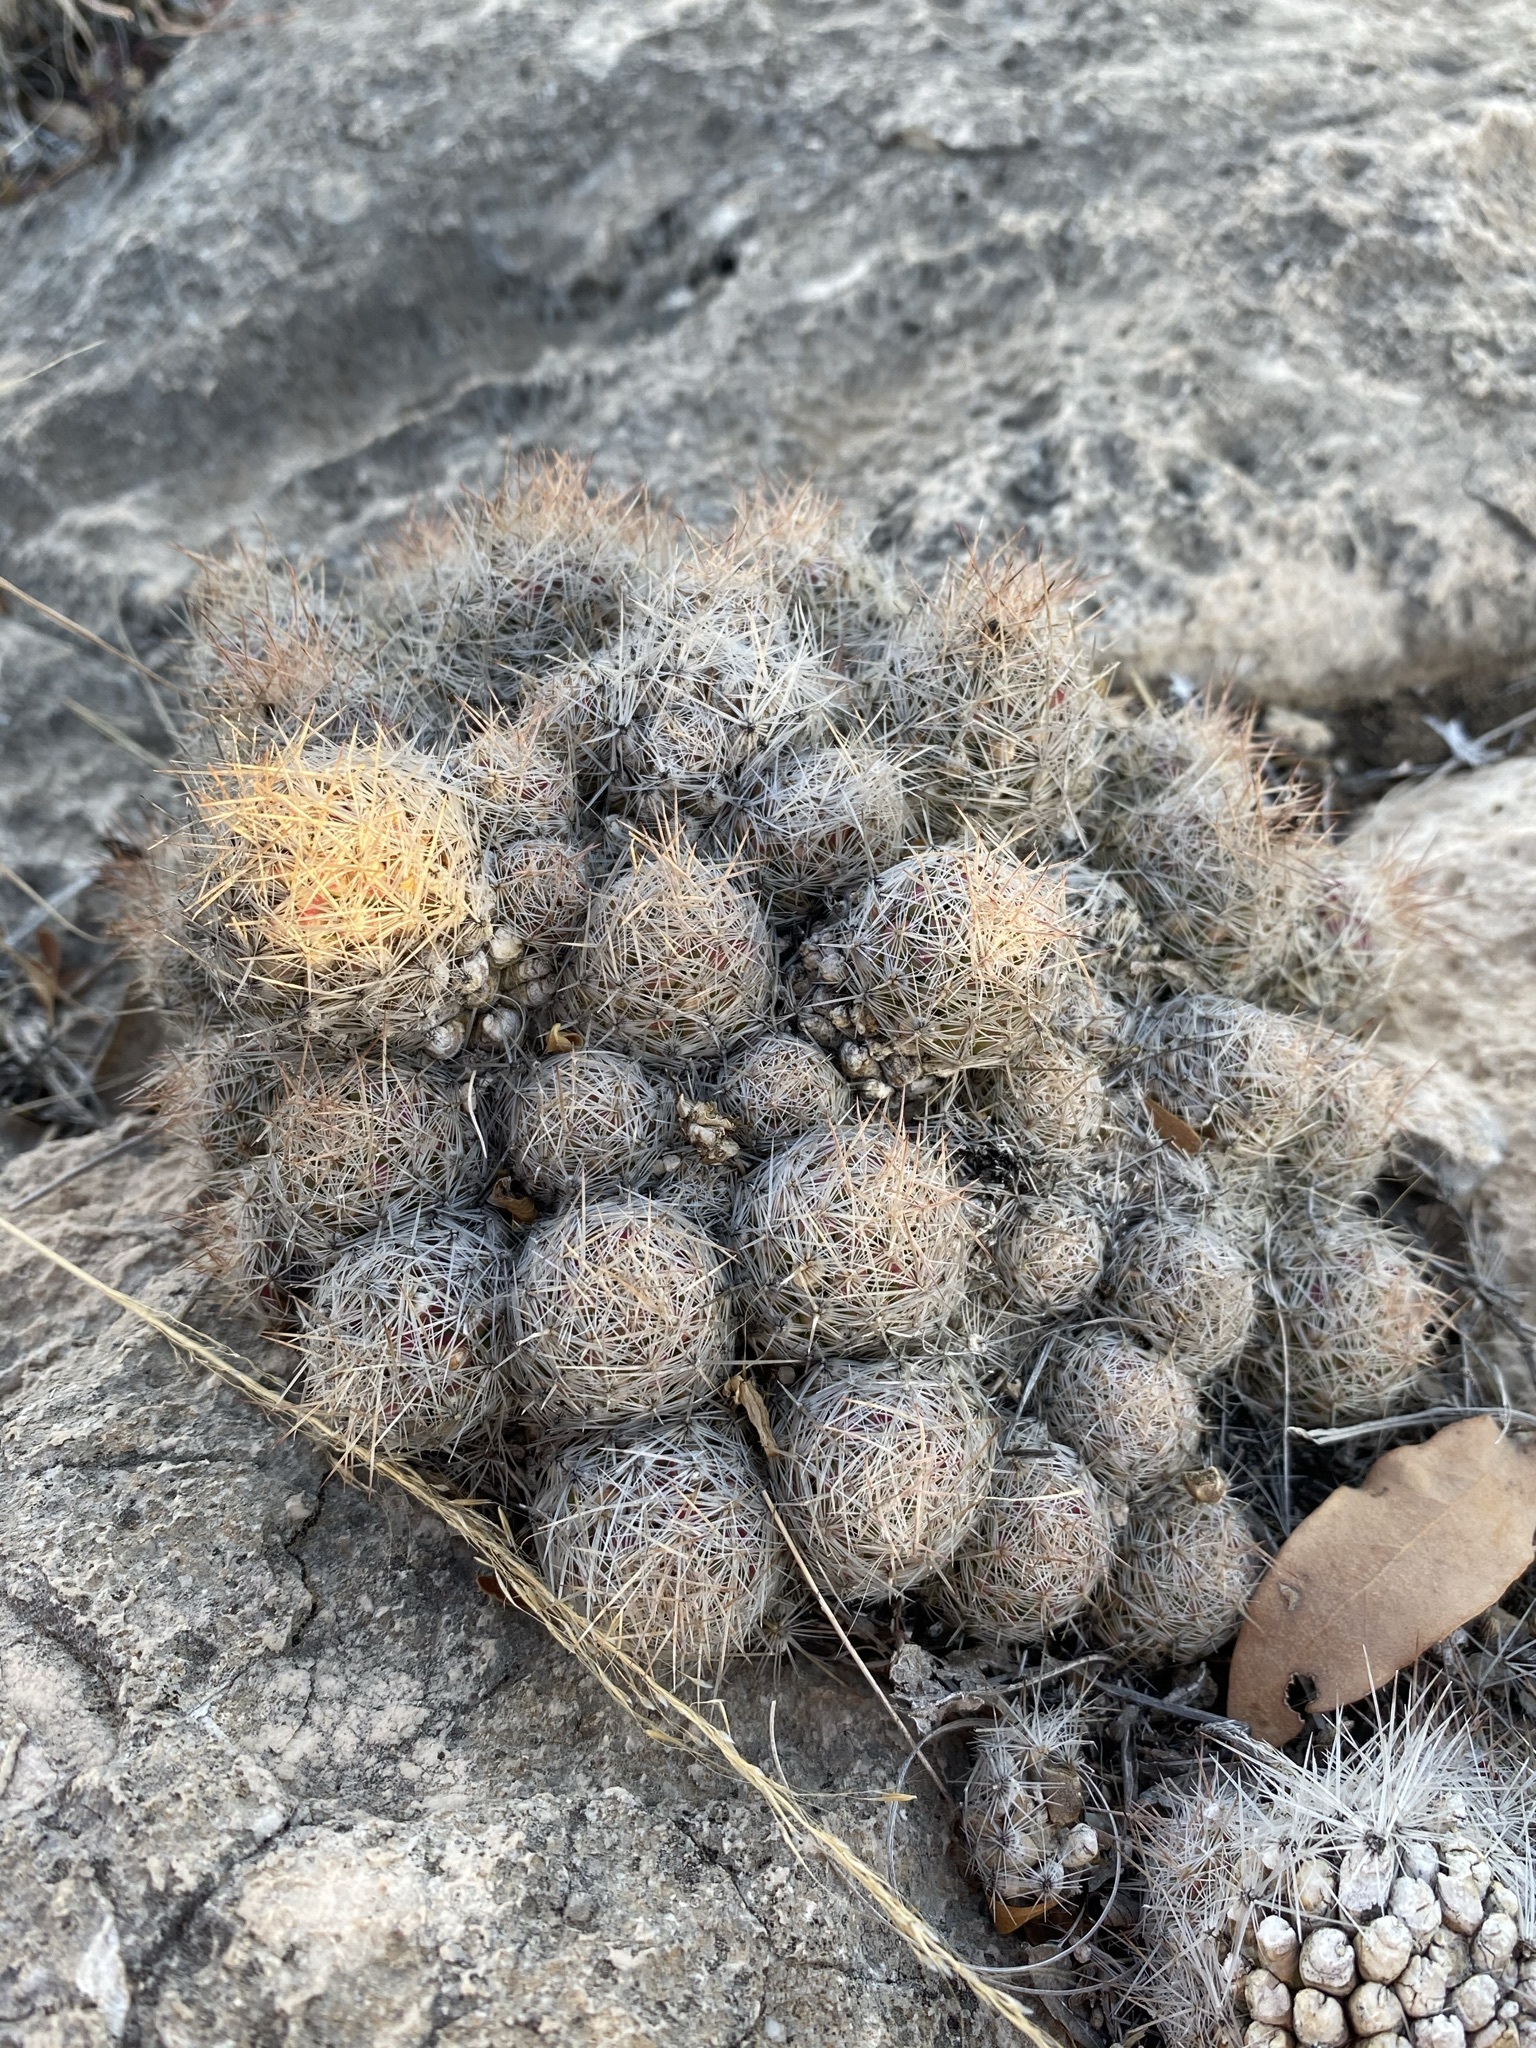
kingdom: Plantae
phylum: Tracheophyta
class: Magnoliopsida
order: Caryophyllales
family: Cactaceae
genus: Pelecyphora
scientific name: Pelecyphora tuberculosa
